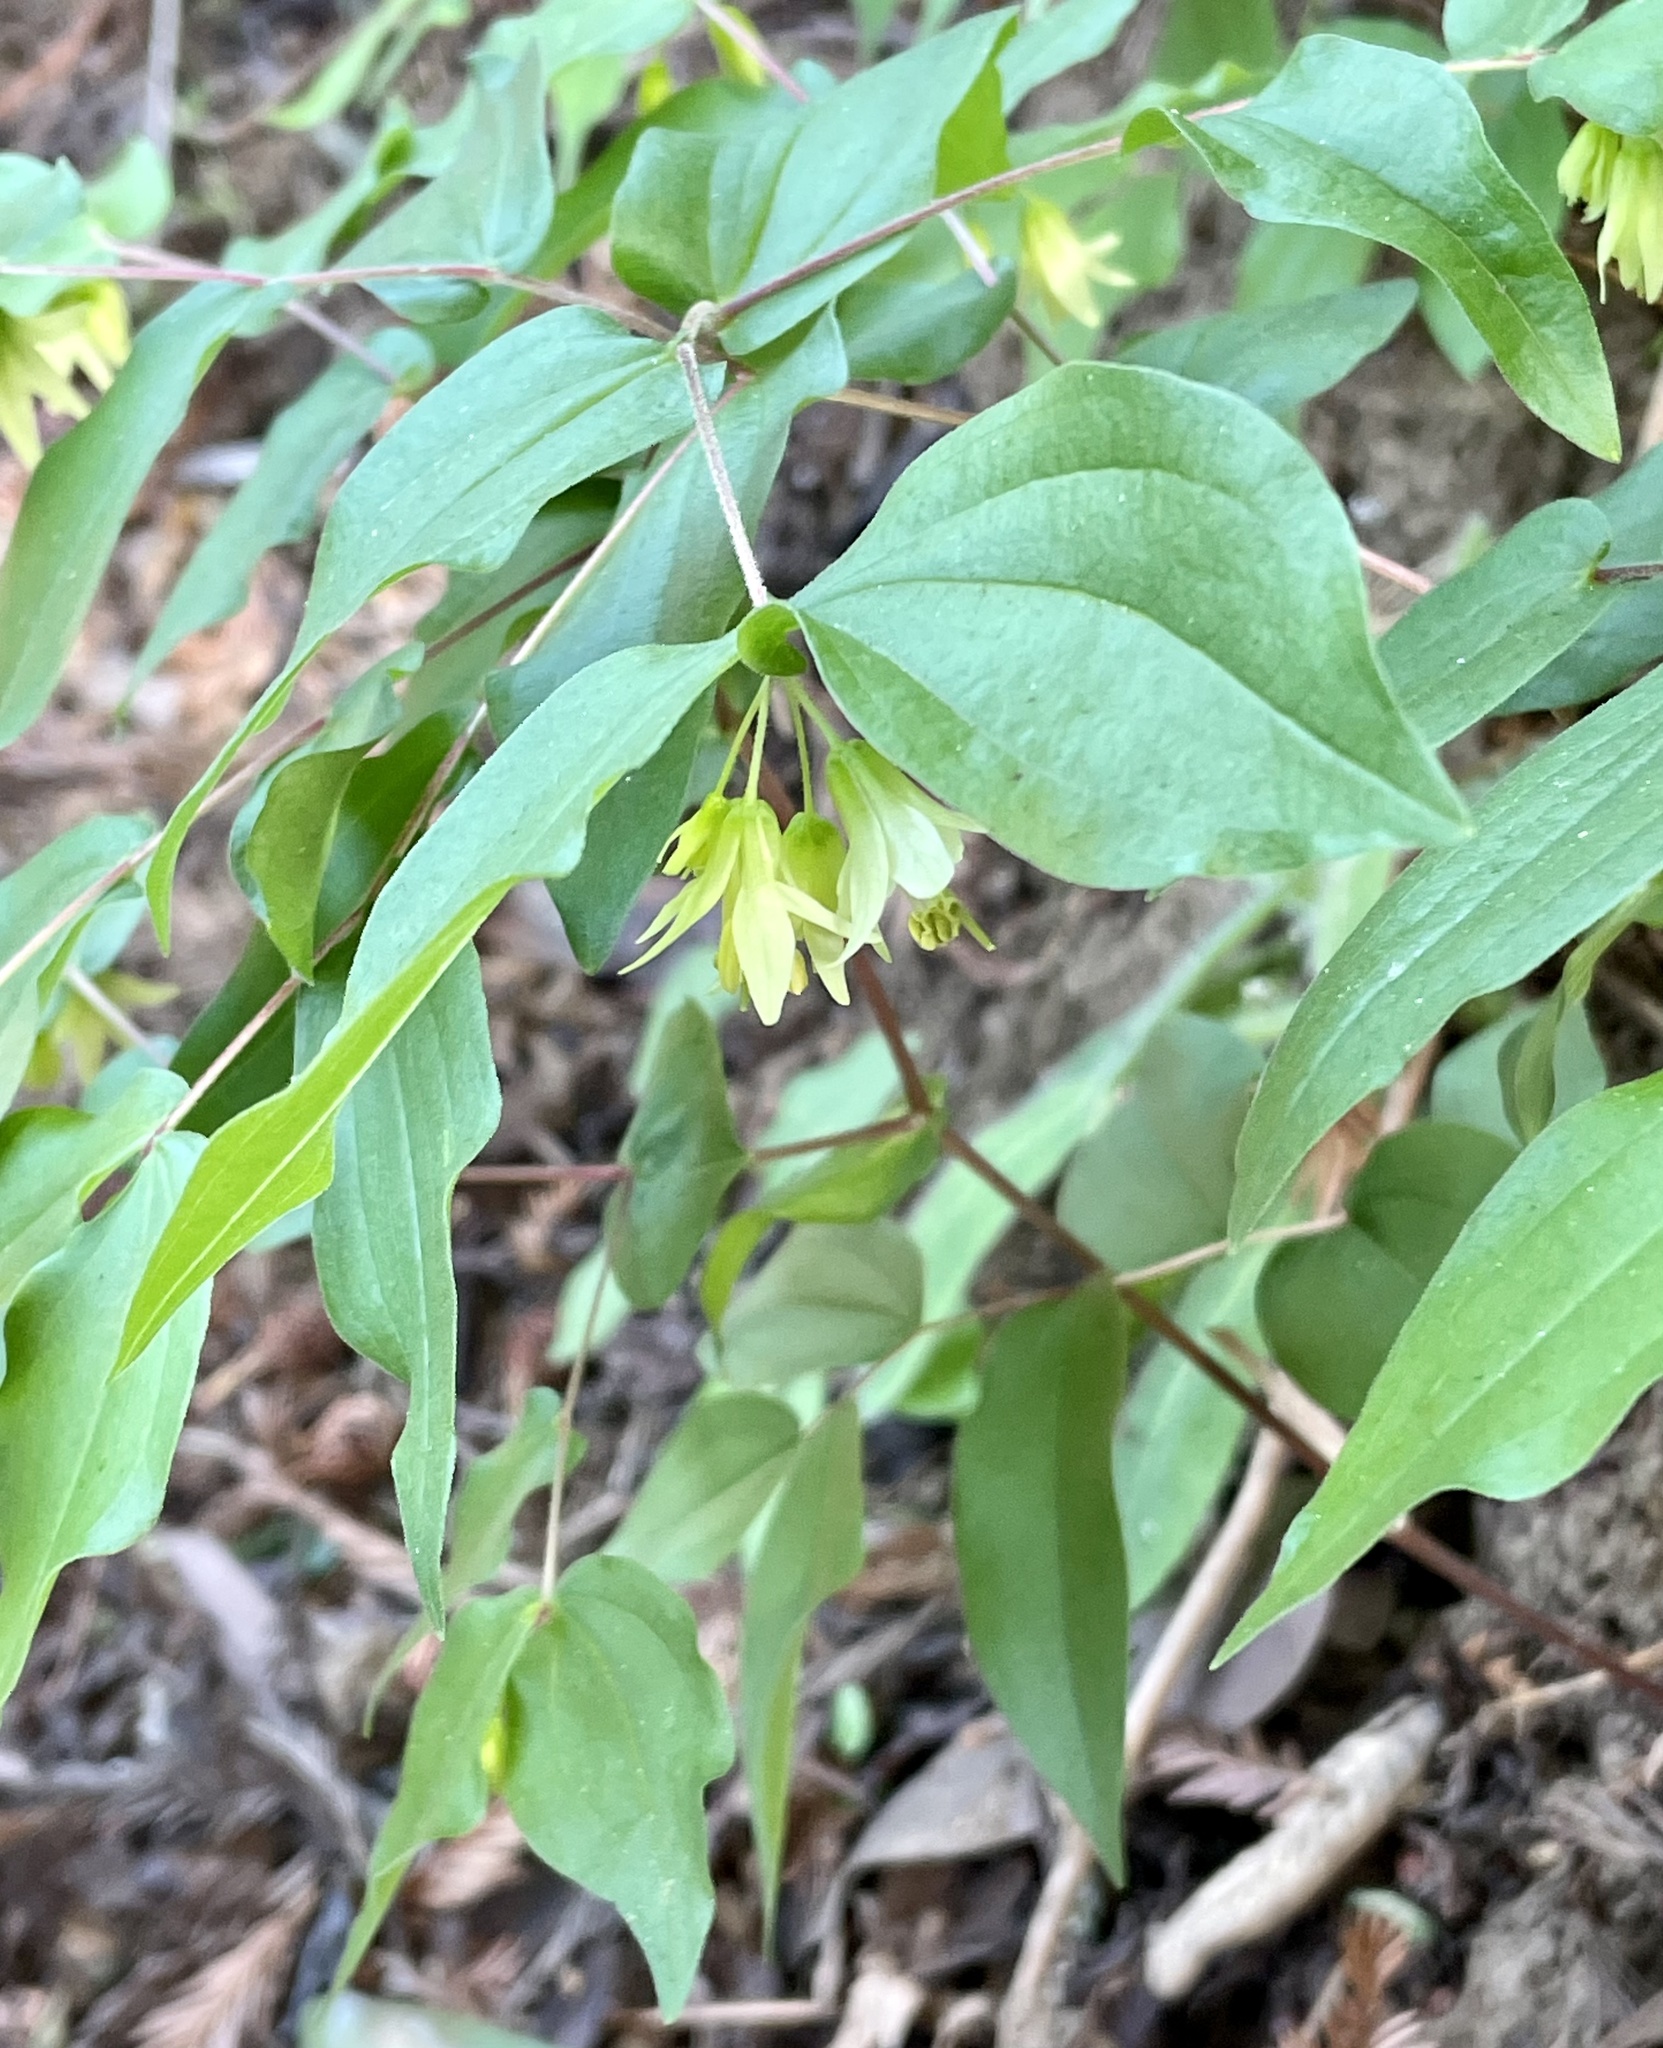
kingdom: Plantae
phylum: Tracheophyta
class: Liliopsida
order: Liliales
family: Liliaceae
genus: Prosartes
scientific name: Prosartes hookeri
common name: Fairy-bells
